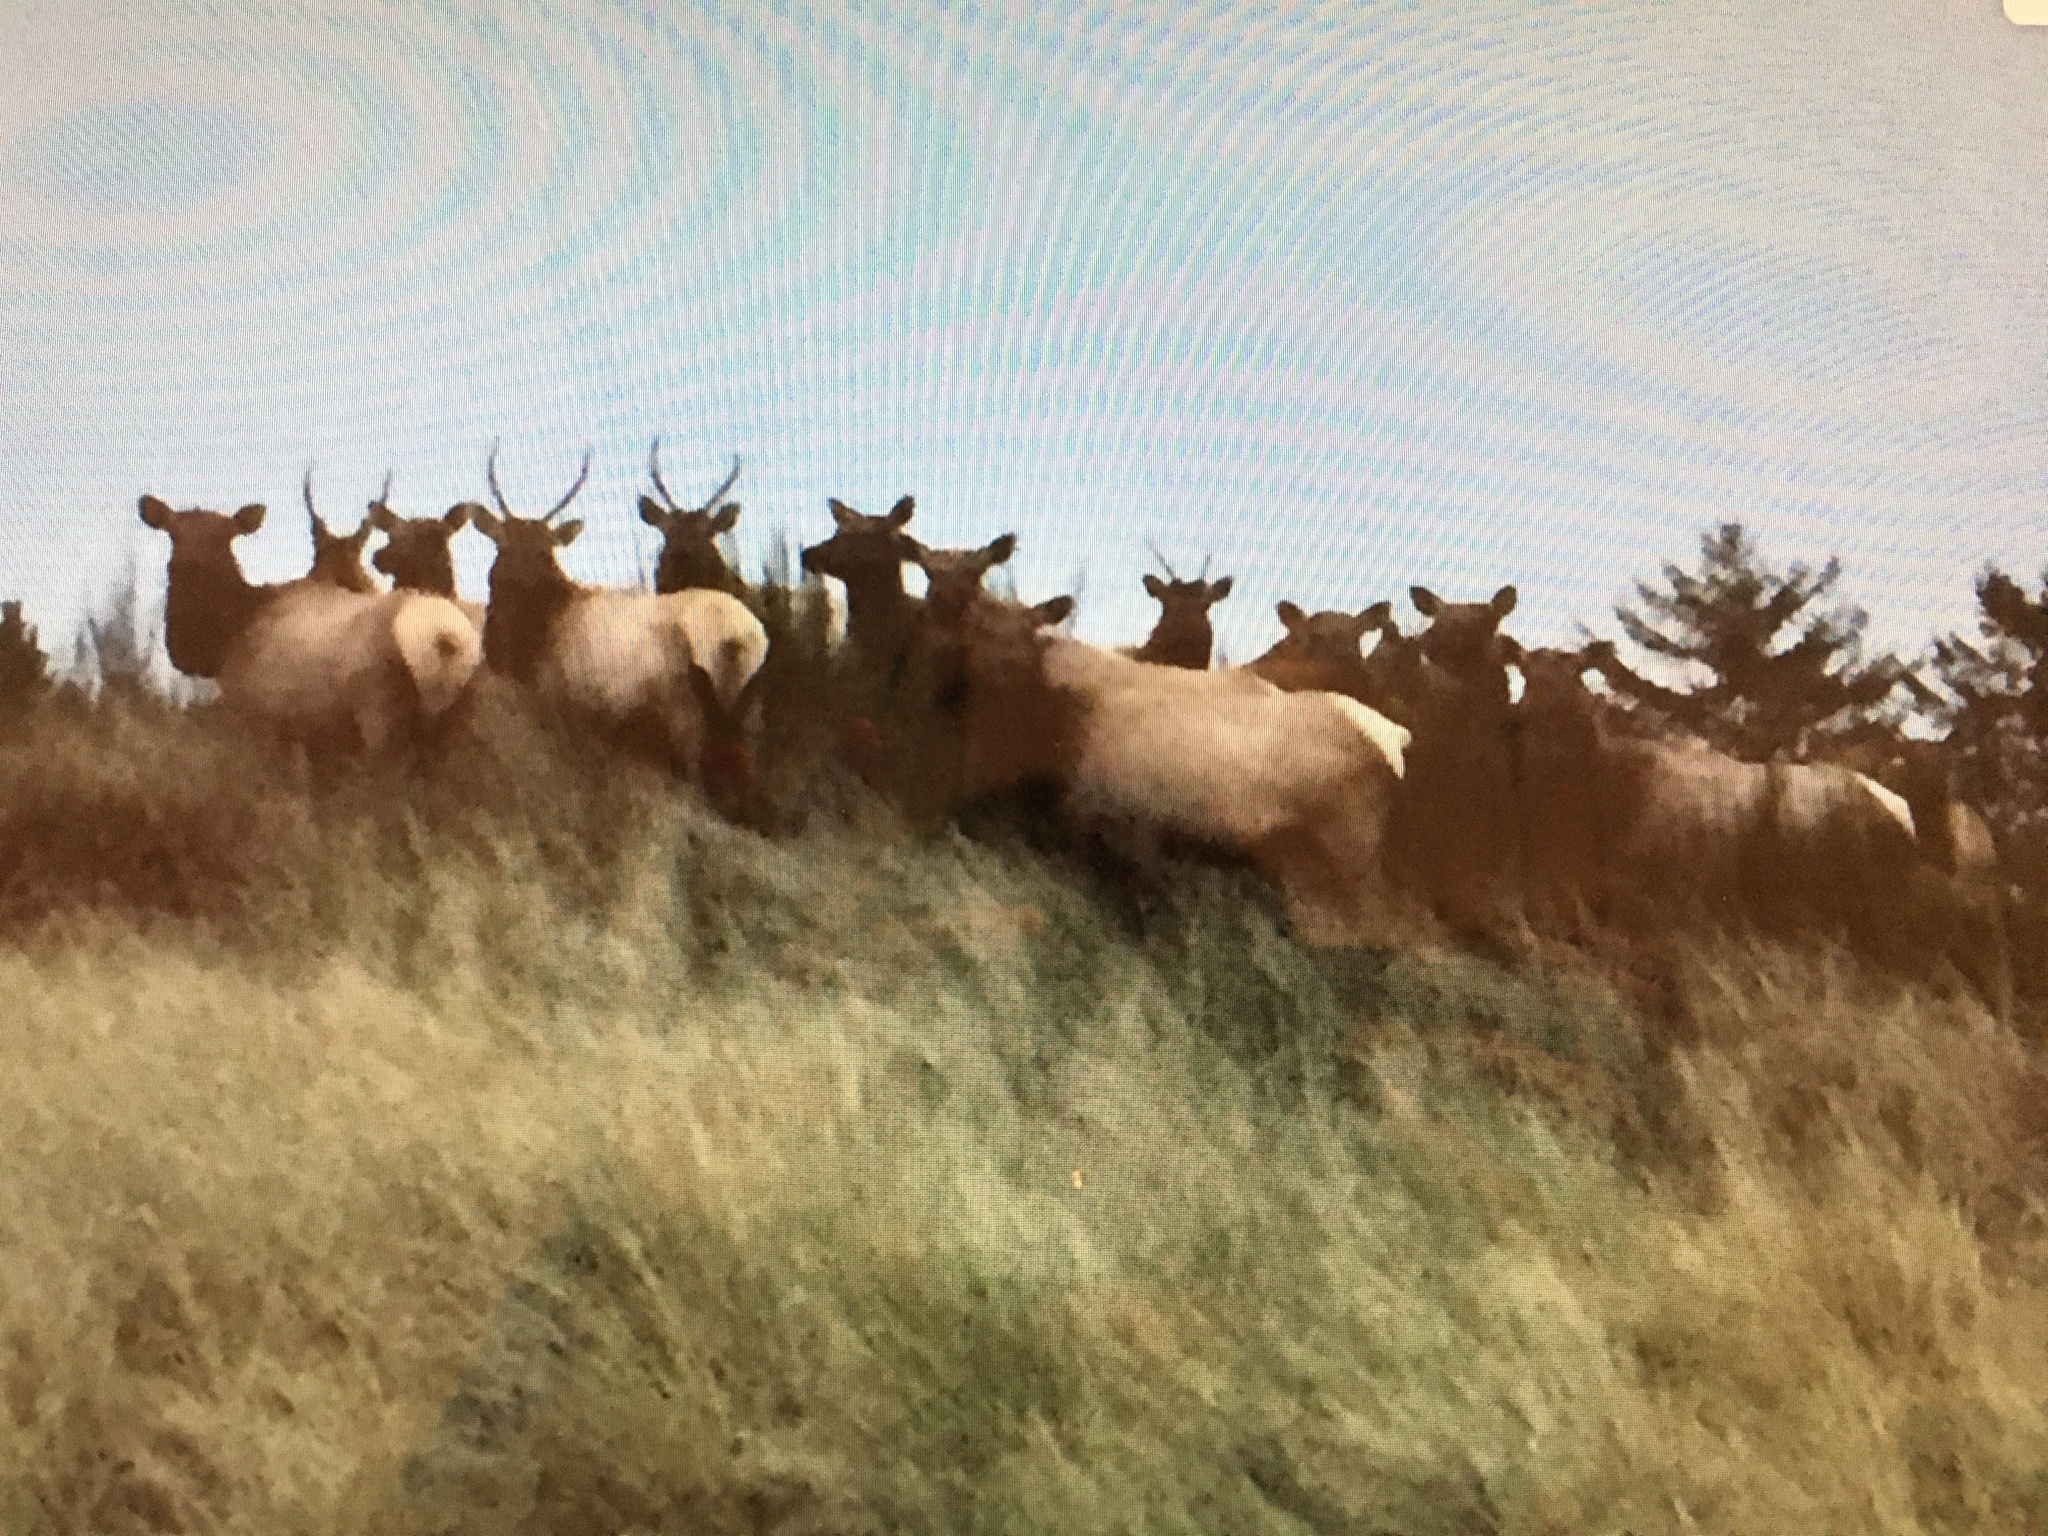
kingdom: Animalia
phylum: Chordata
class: Mammalia
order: Artiodactyla
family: Cervidae
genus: Cervus
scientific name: Cervus elaphus
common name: Red deer
